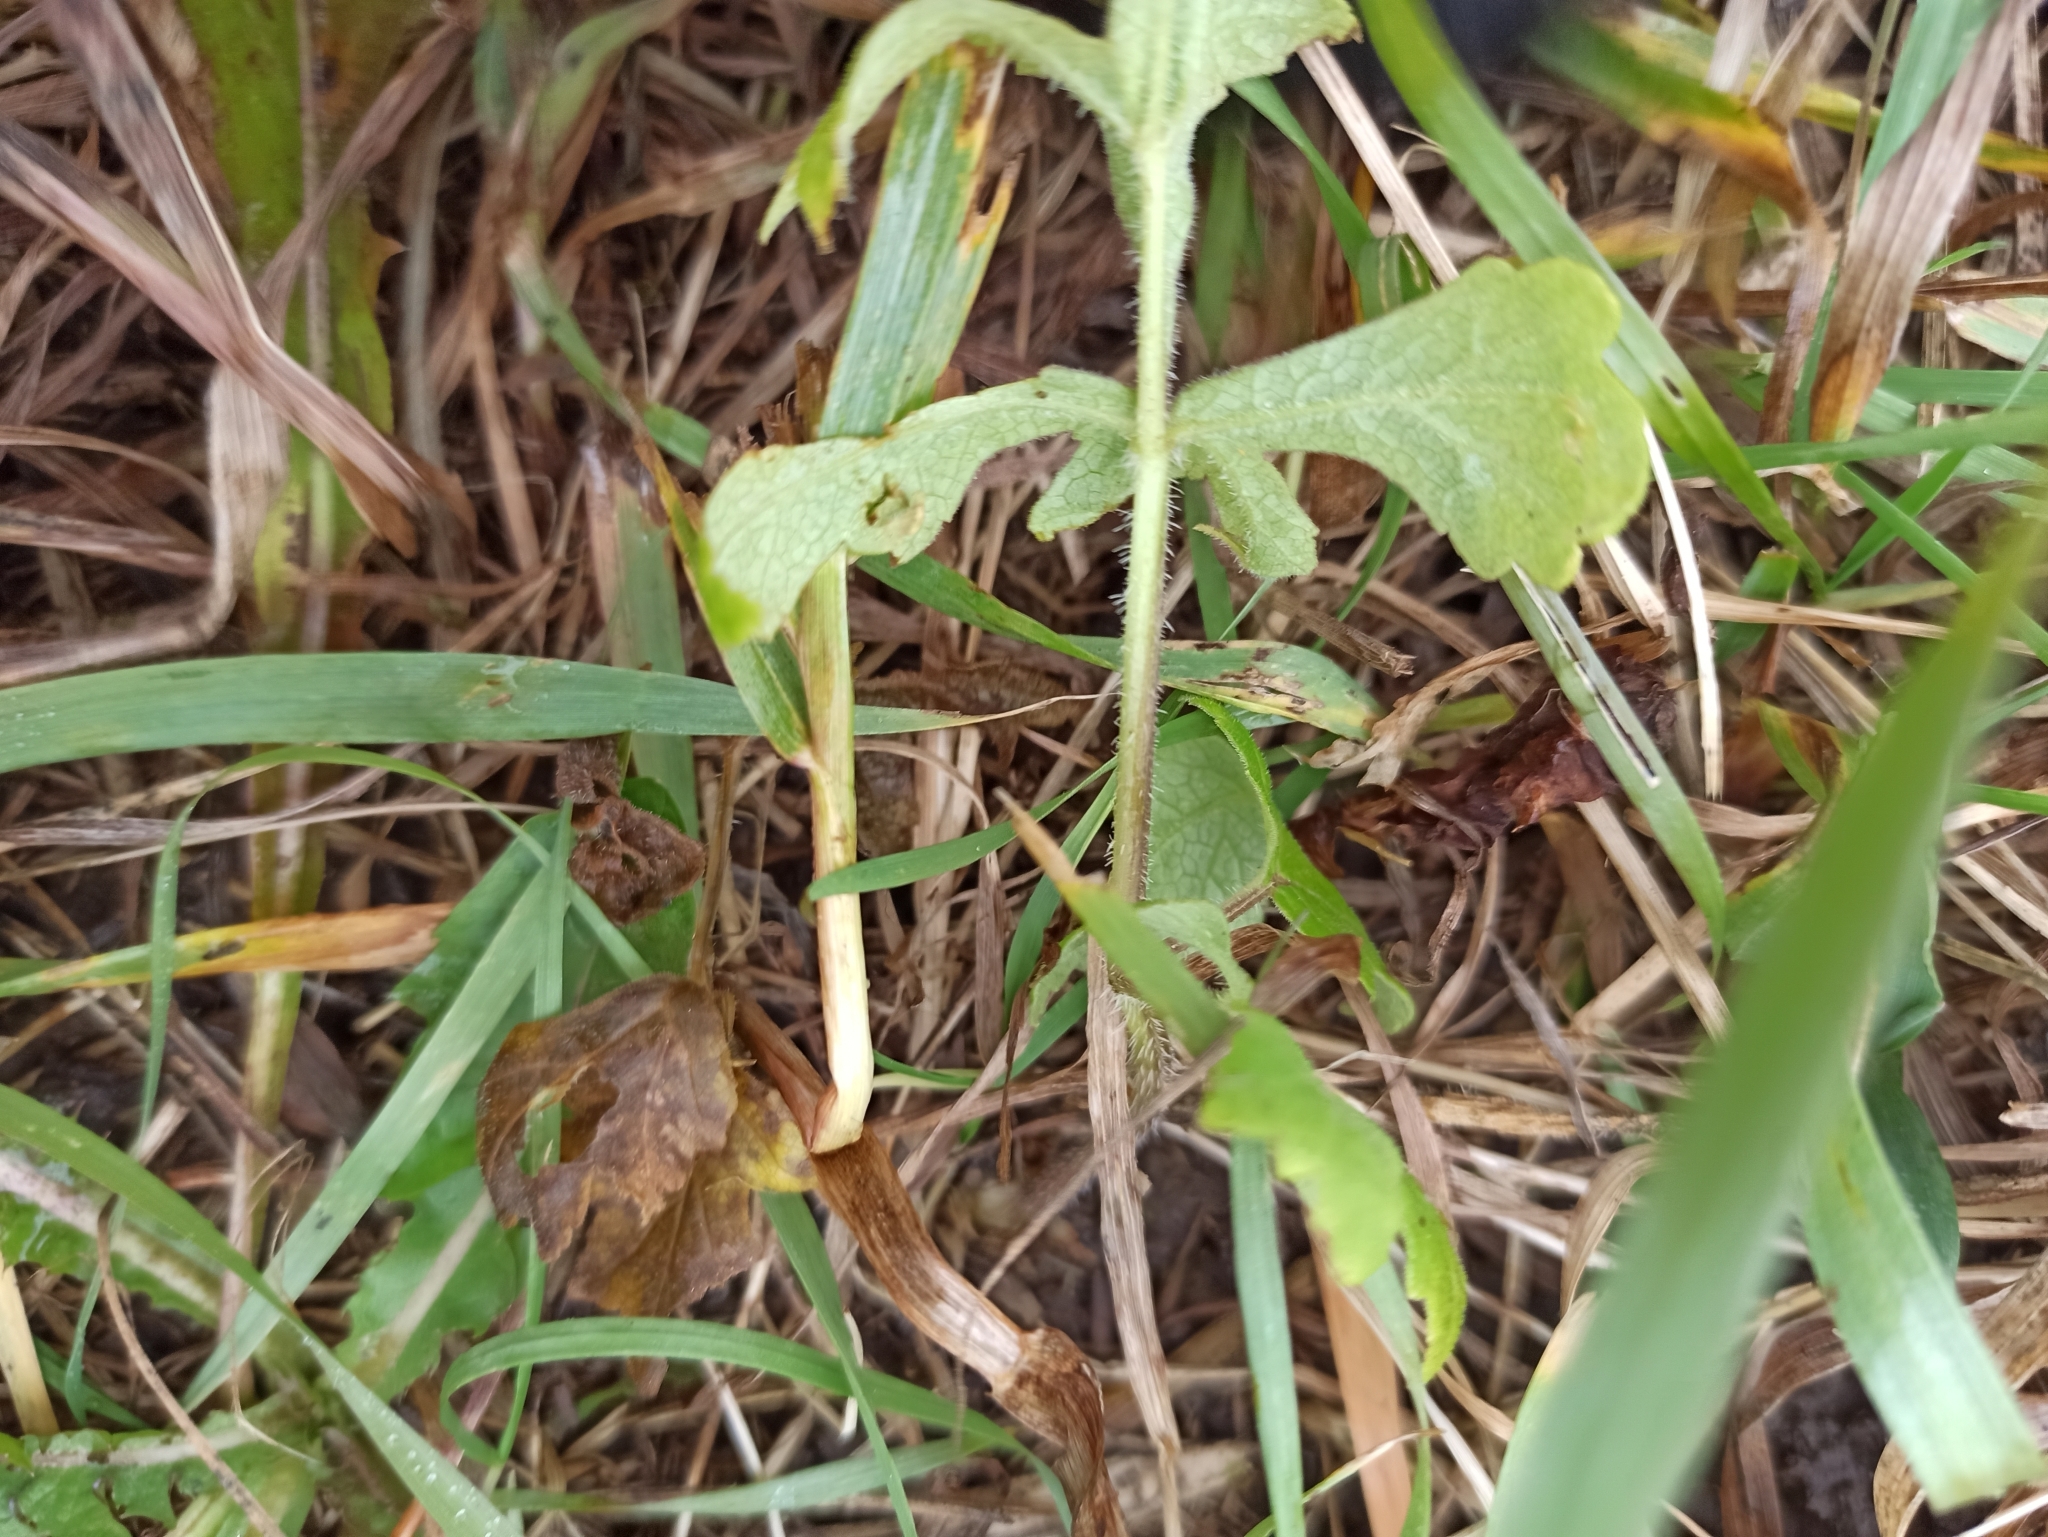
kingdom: Plantae
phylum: Tracheophyta
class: Magnoliopsida
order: Apiales
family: Apiaceae
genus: Heracleum
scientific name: Heracleum sphondylium
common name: Hogweed
